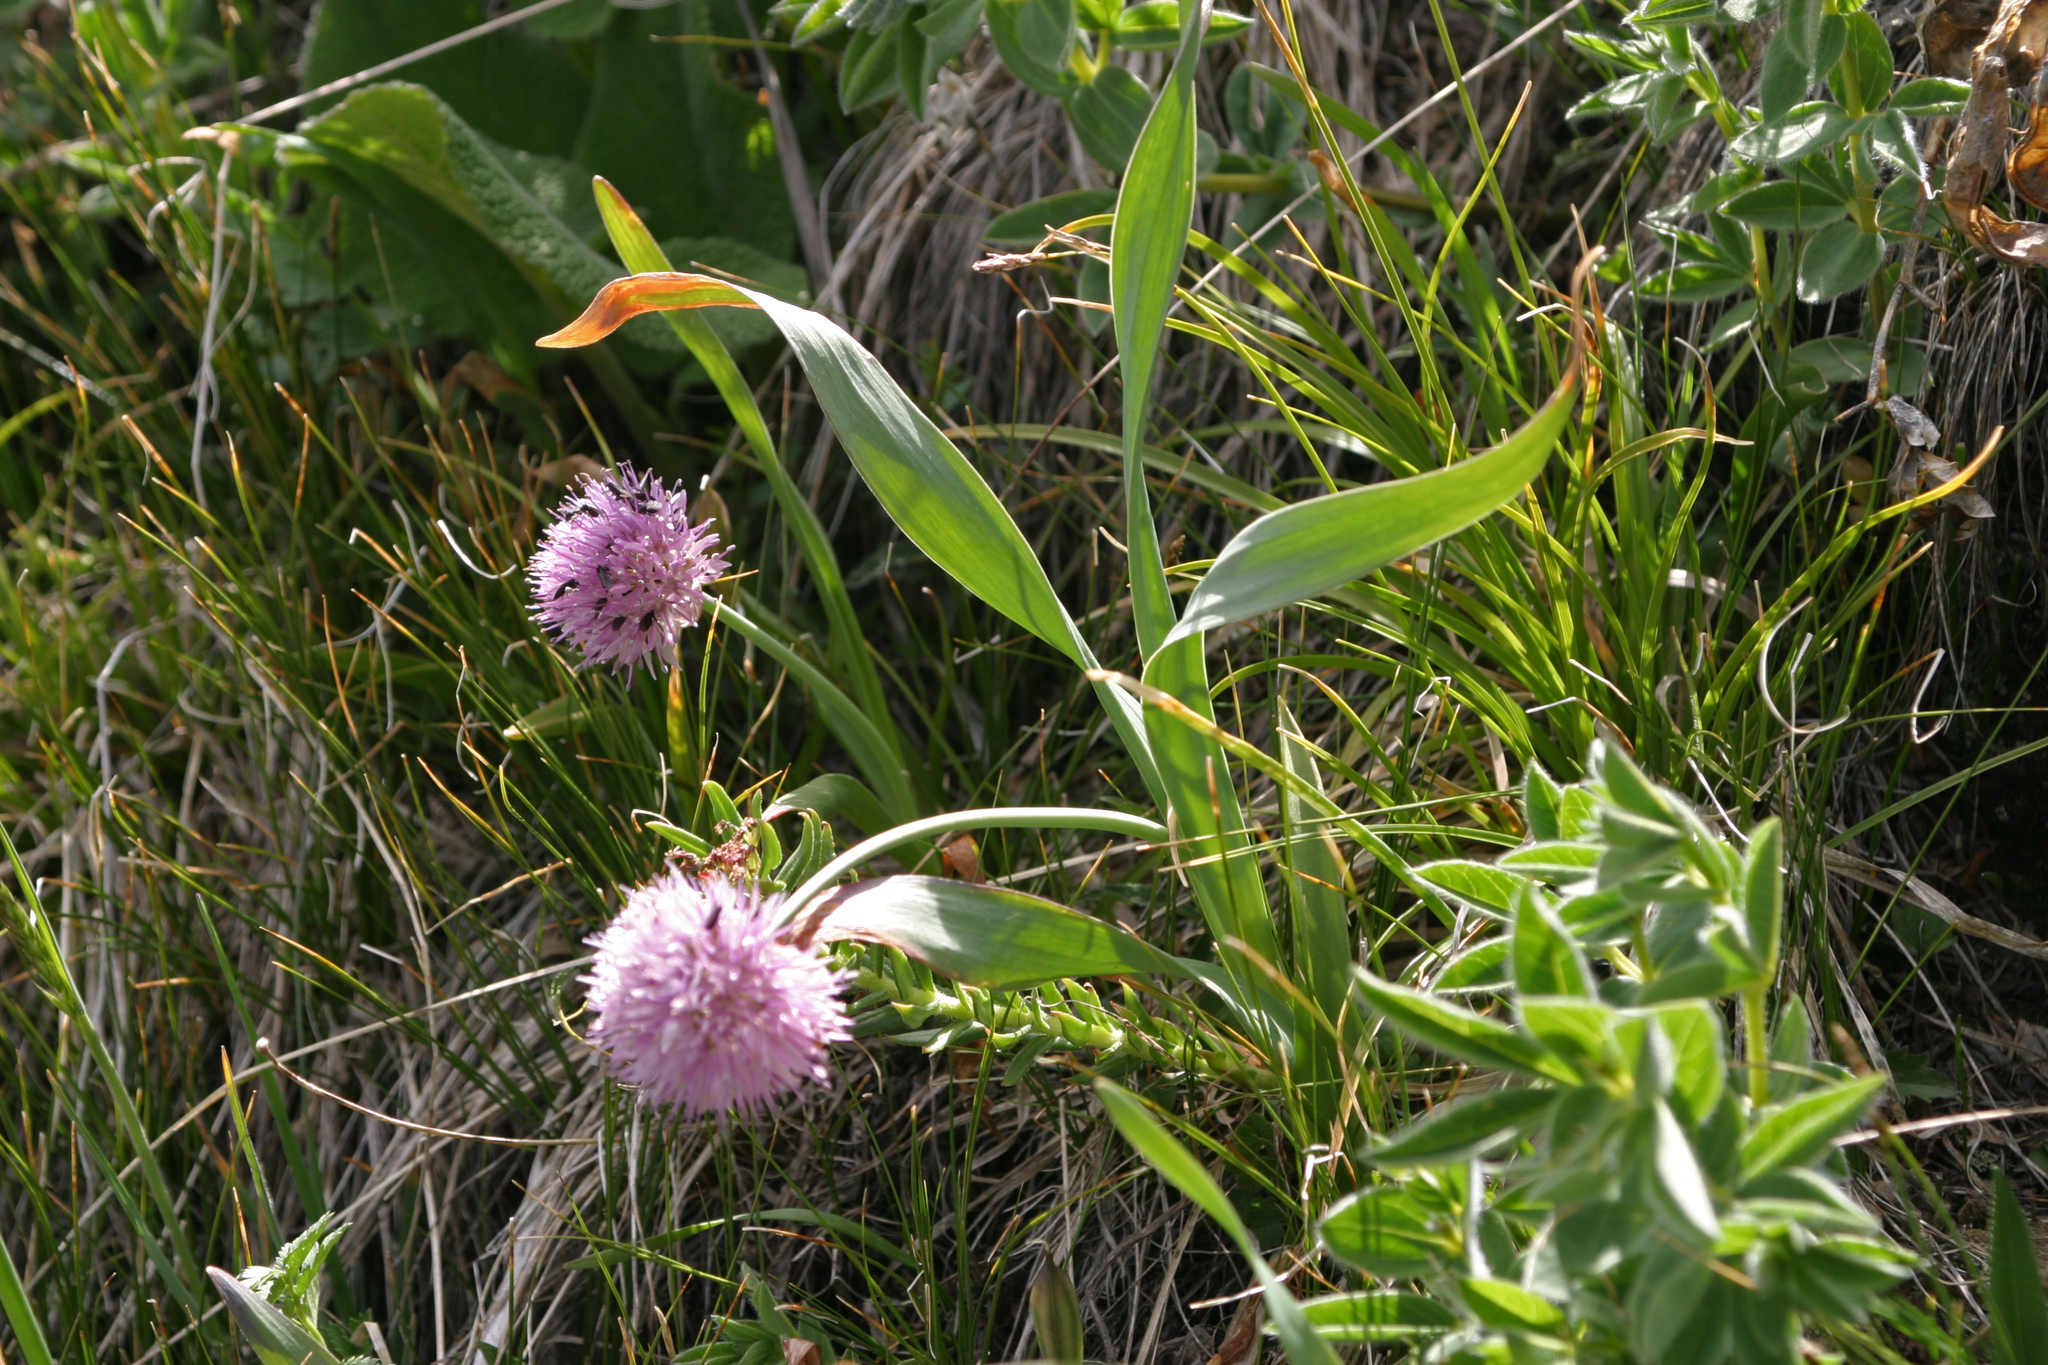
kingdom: Plantae
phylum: Tracheophyta
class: Liliopsida
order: Asparagales
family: Amaryllidaceae
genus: Allium
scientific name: Allium platyspathum
